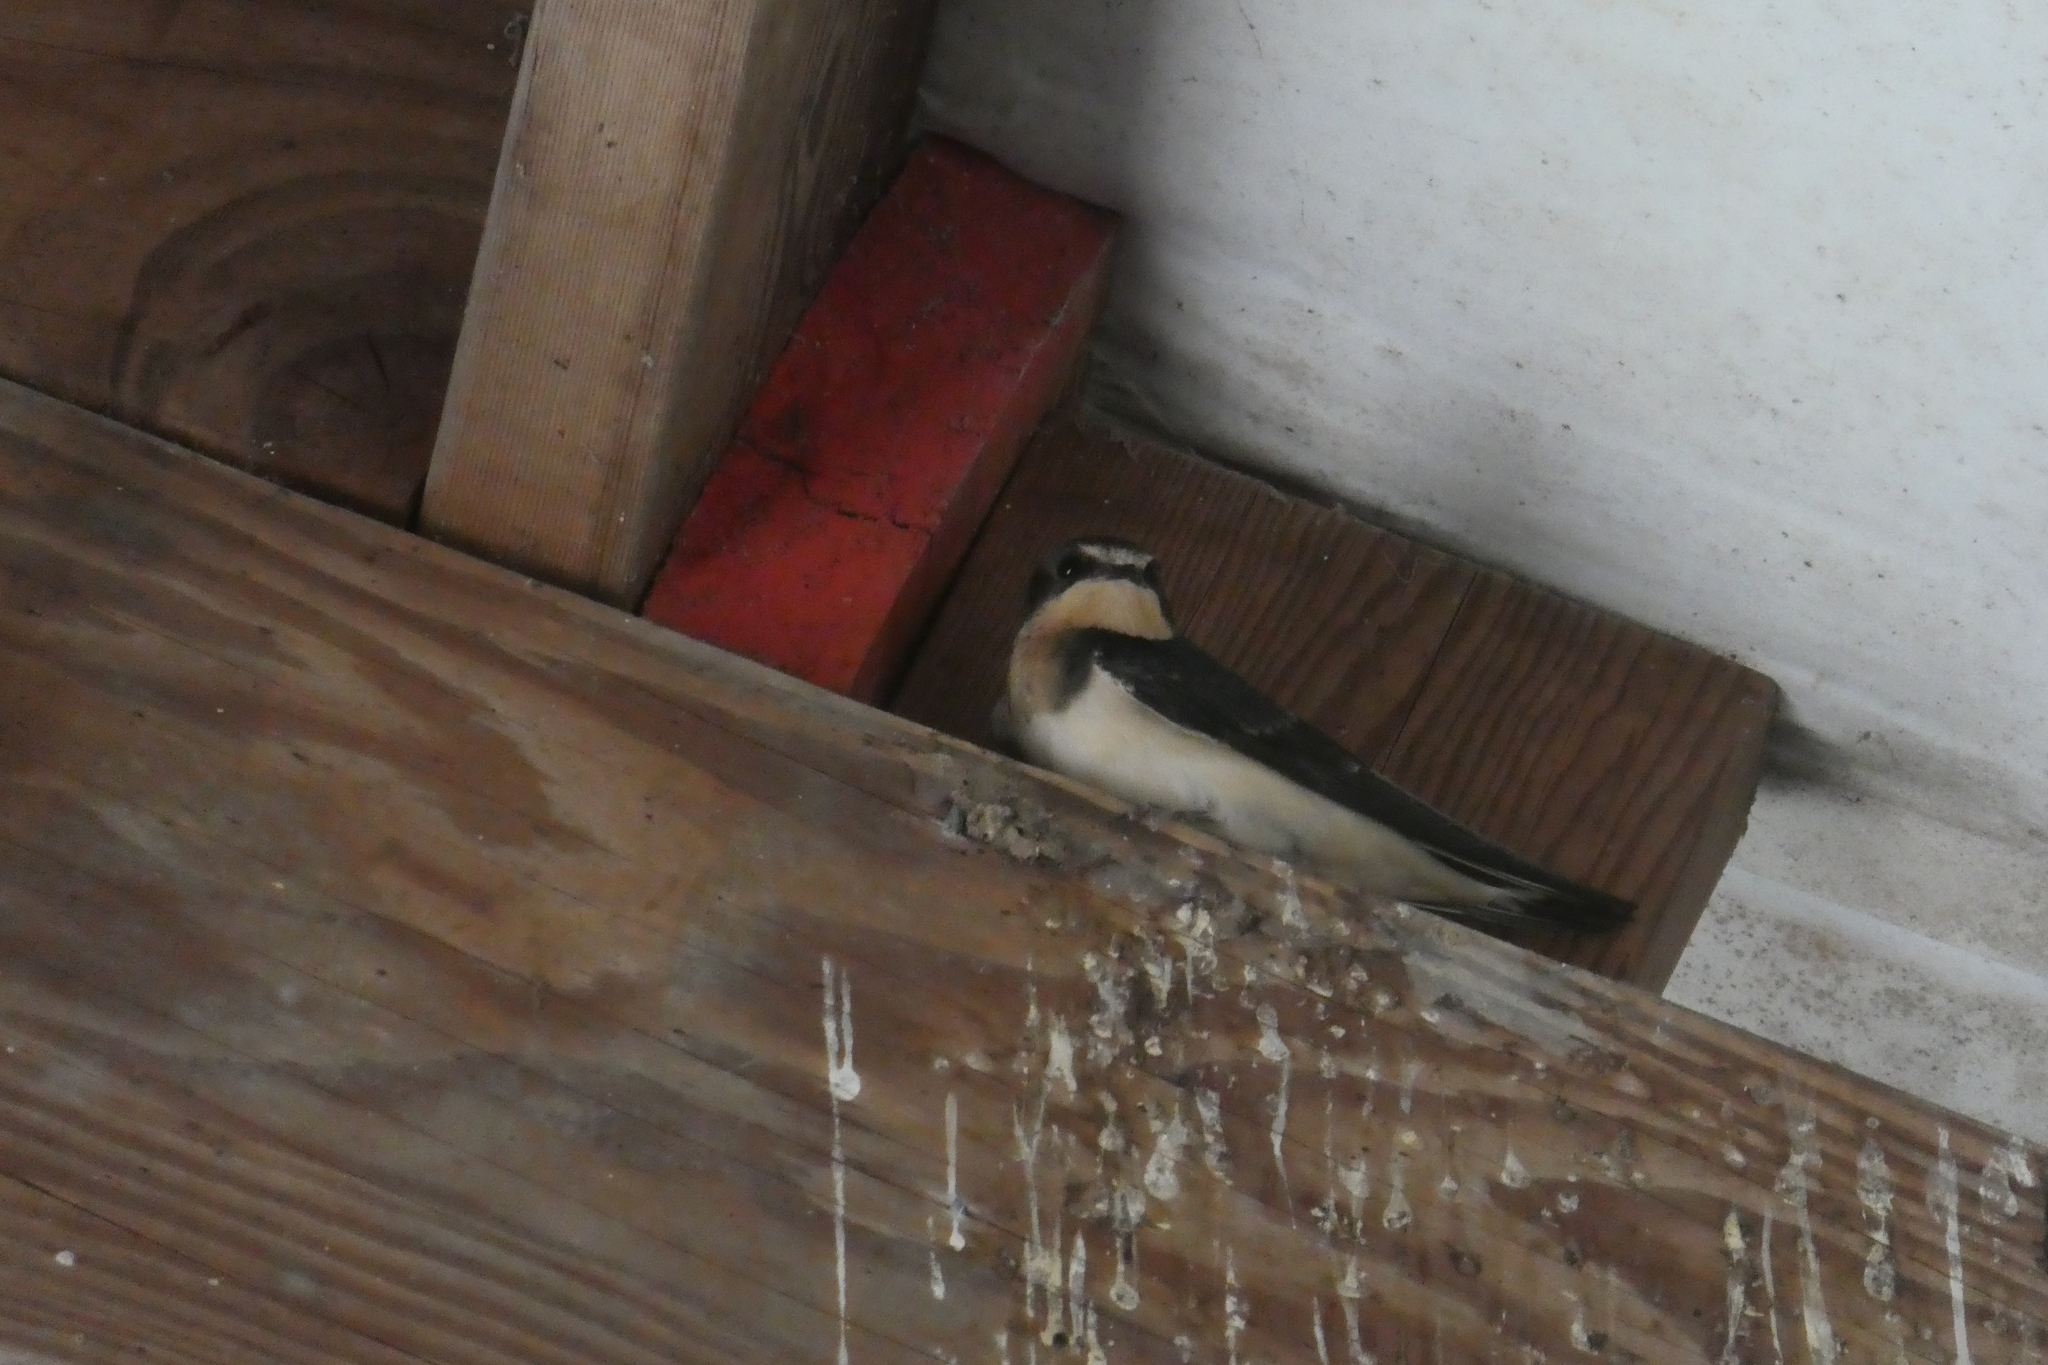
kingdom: Animalia
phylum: Chordata
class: Aves
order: Passeriformes
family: Hirundinidae
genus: Hirundo
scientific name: Hirundo rustica
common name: Barn swallow
